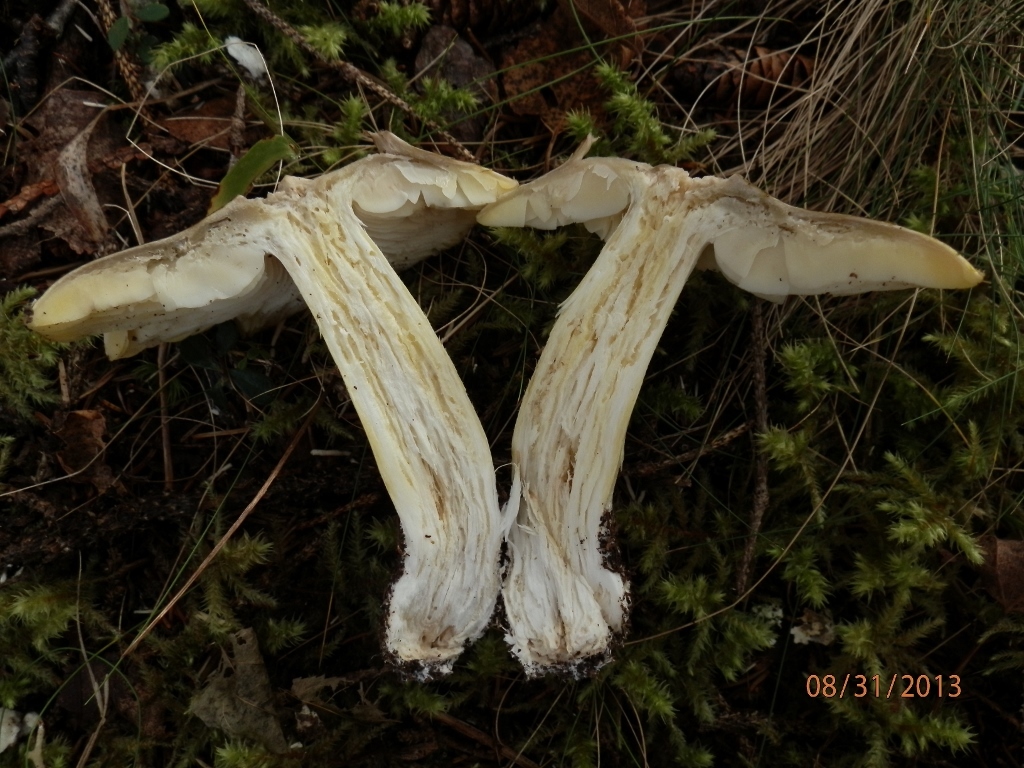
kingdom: Fungi
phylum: Basidiomycota
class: Agaricomycetes
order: Agaricales
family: Tricholomataceae
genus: Tricholoma
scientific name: Tricholoma subsejunctum
